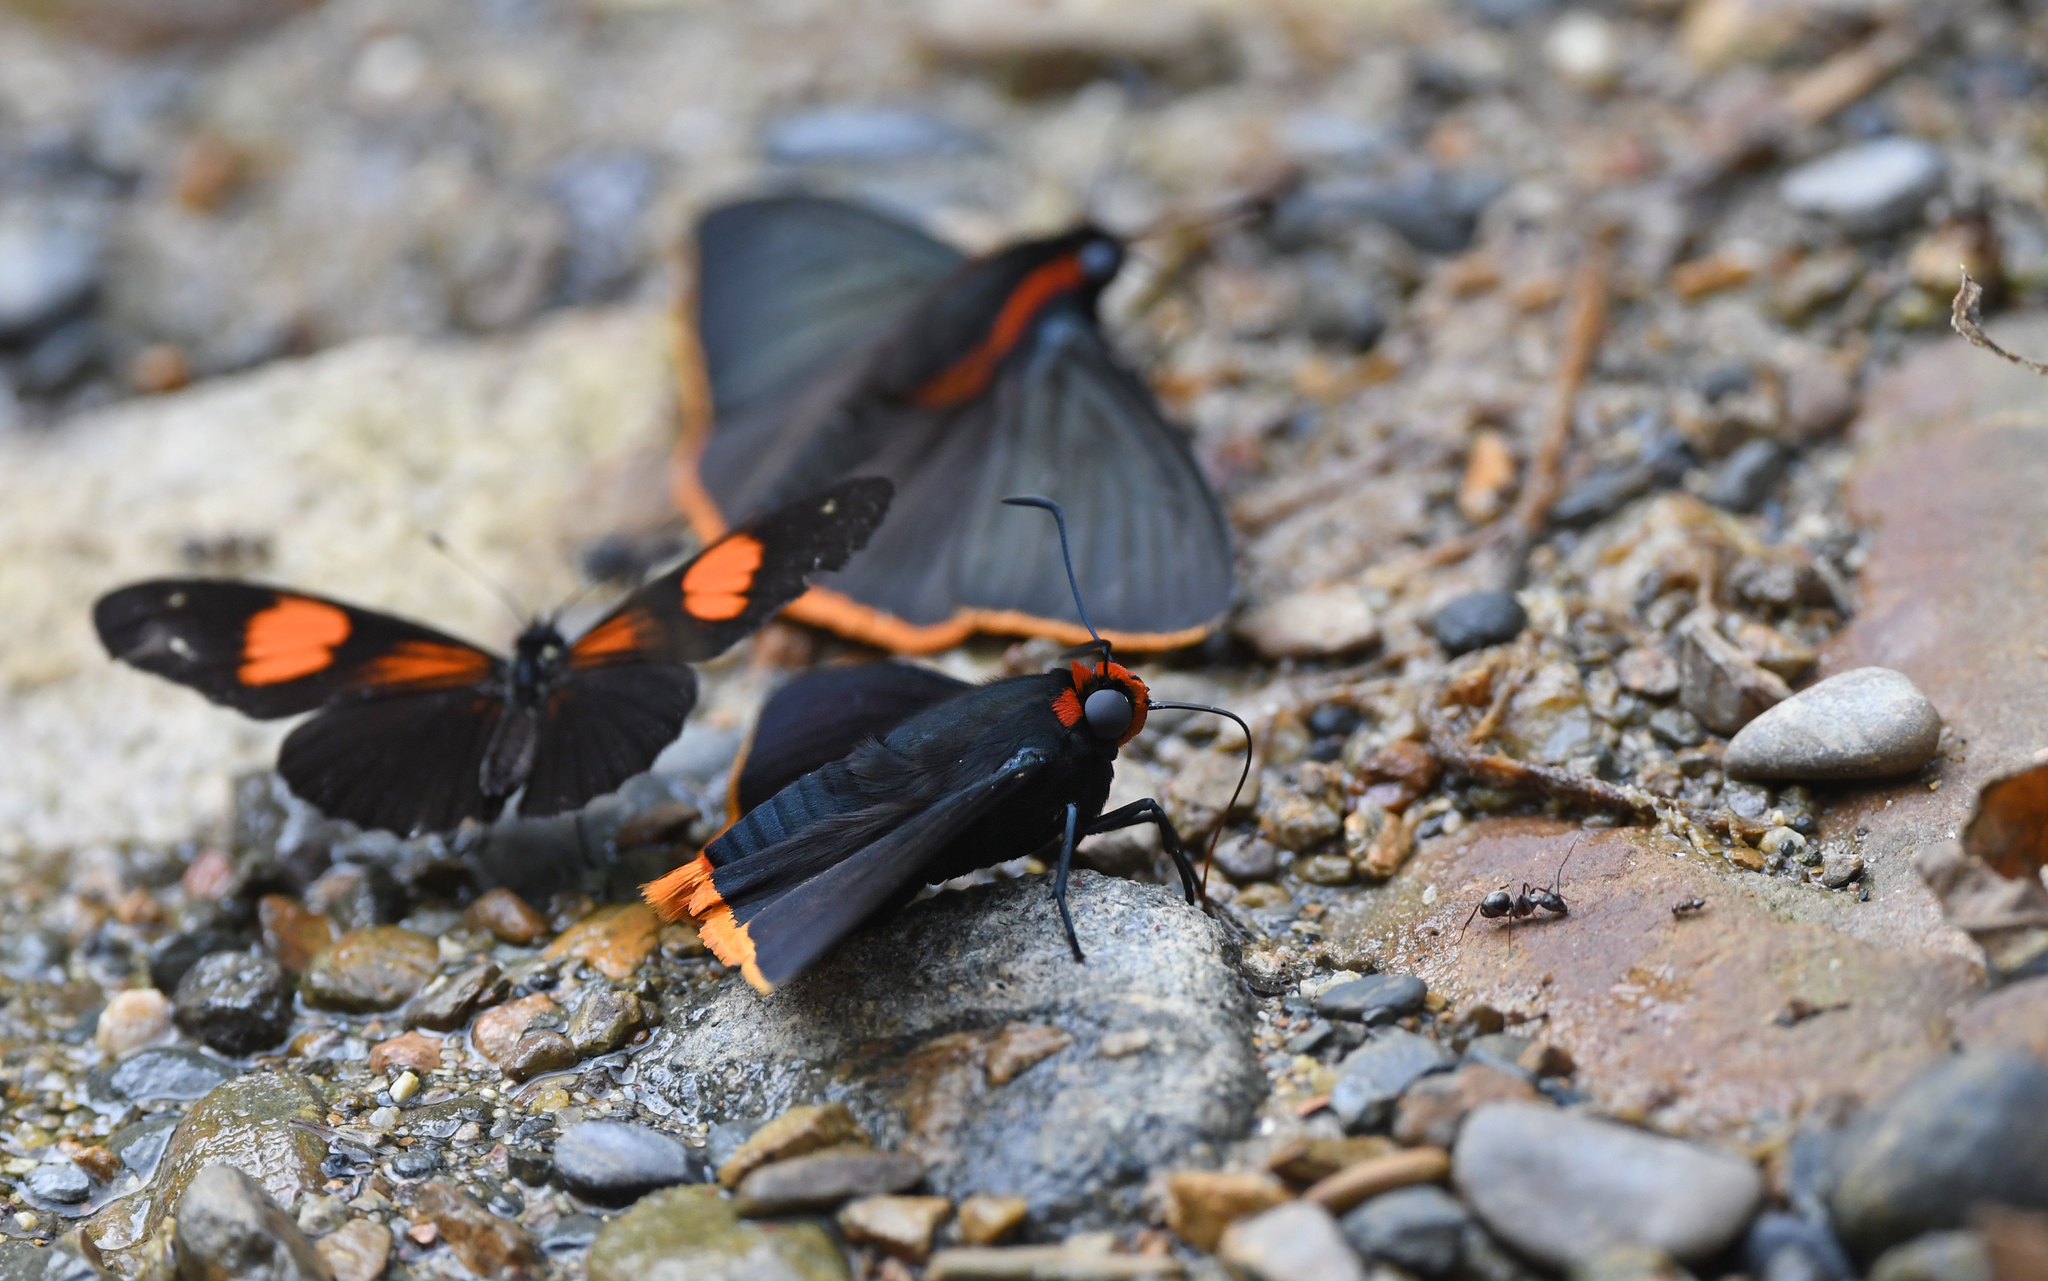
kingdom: Animalia
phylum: Arthropoda
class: Insecta
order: Lepidoptera
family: Hesperiidae
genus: Pyrrhopyge
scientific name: Pyrrhopyge arax
